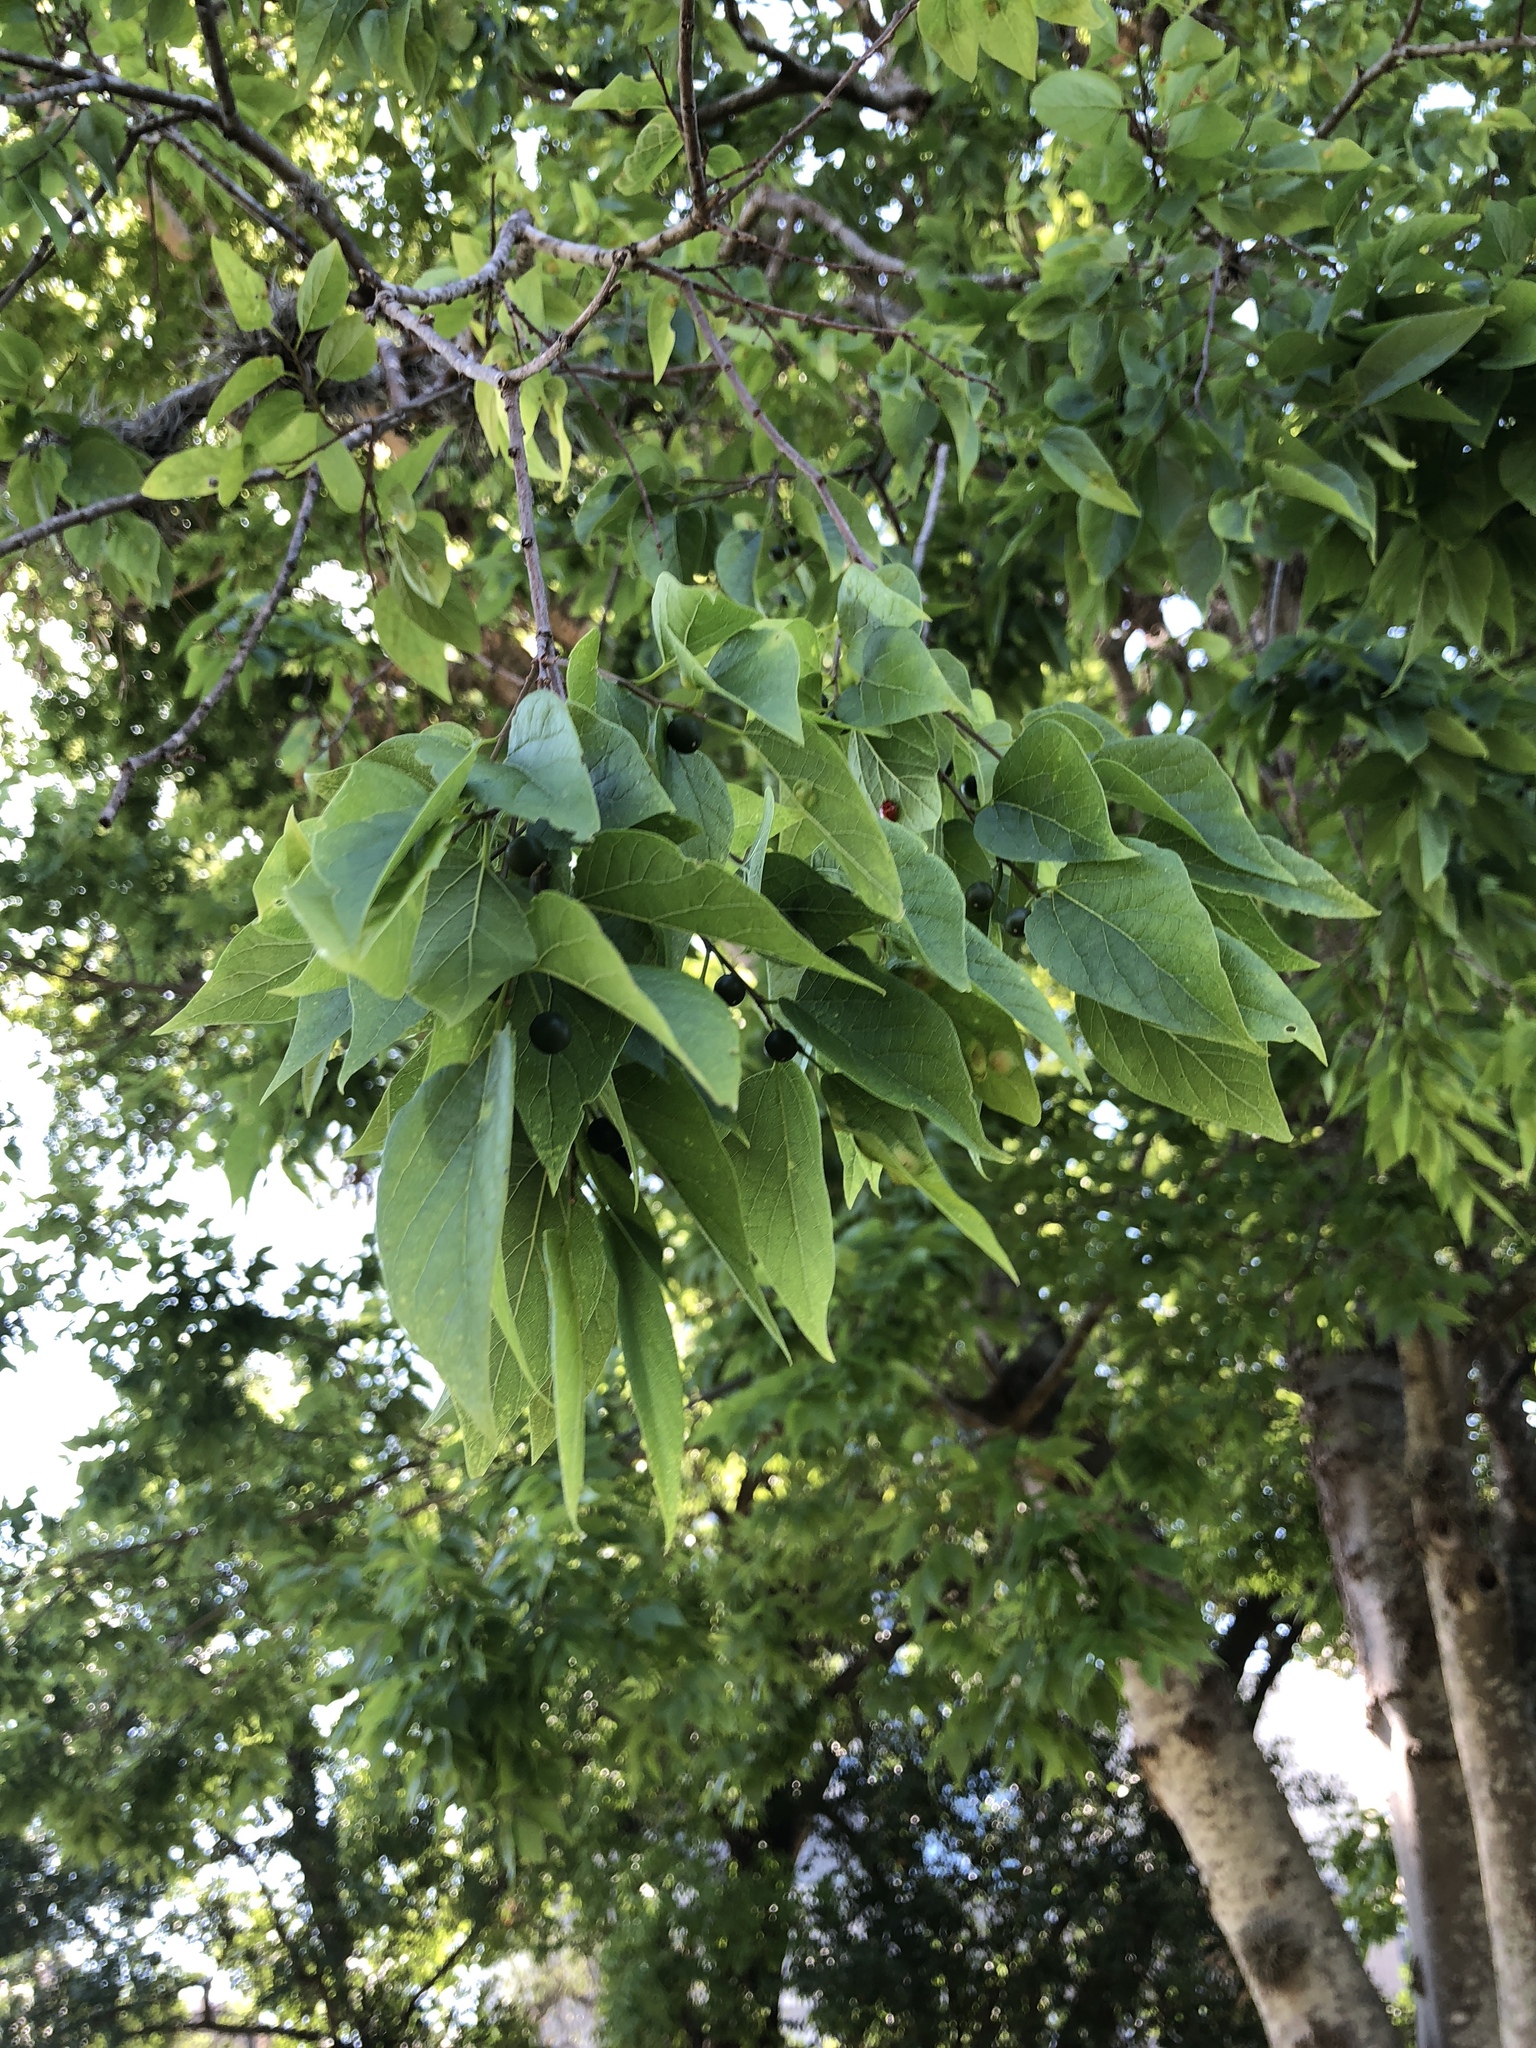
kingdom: Plantae
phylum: Tracheophyta
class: Magnoliopsida
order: Rosales
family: Cannabaceae
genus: Celtis
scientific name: Celtis laevigata
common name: Sugarberry
